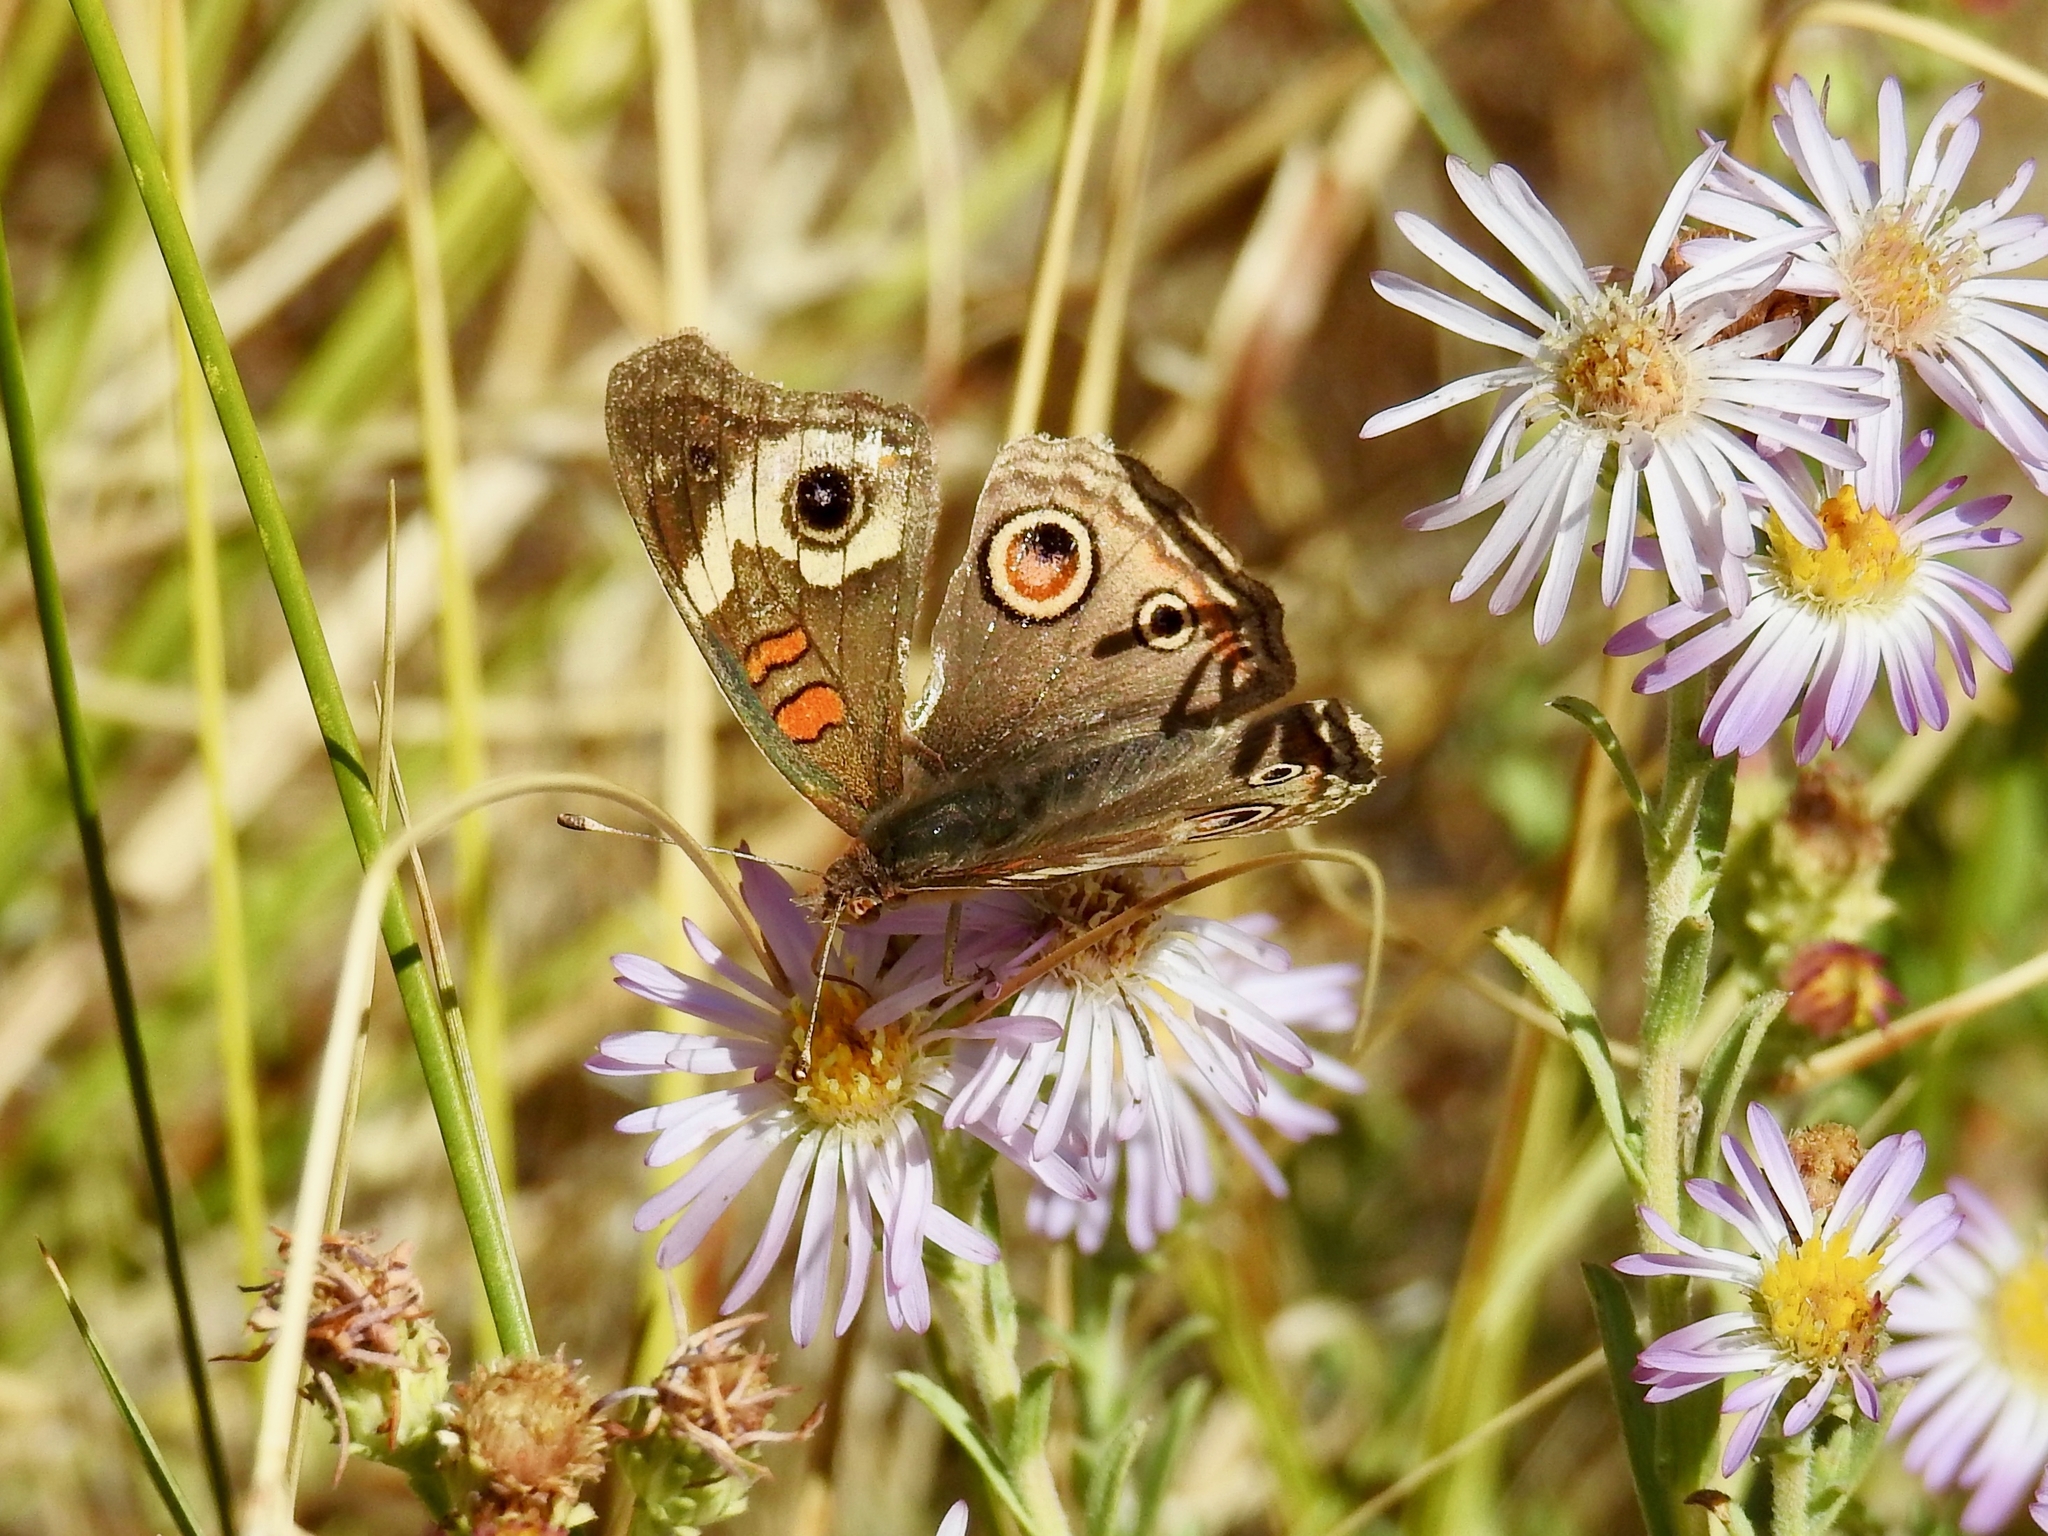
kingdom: Animalia
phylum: Arthropoda
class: Insecta
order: Lepidoptera
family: Nymphalidae
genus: Junonia
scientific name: Junonia grisea
